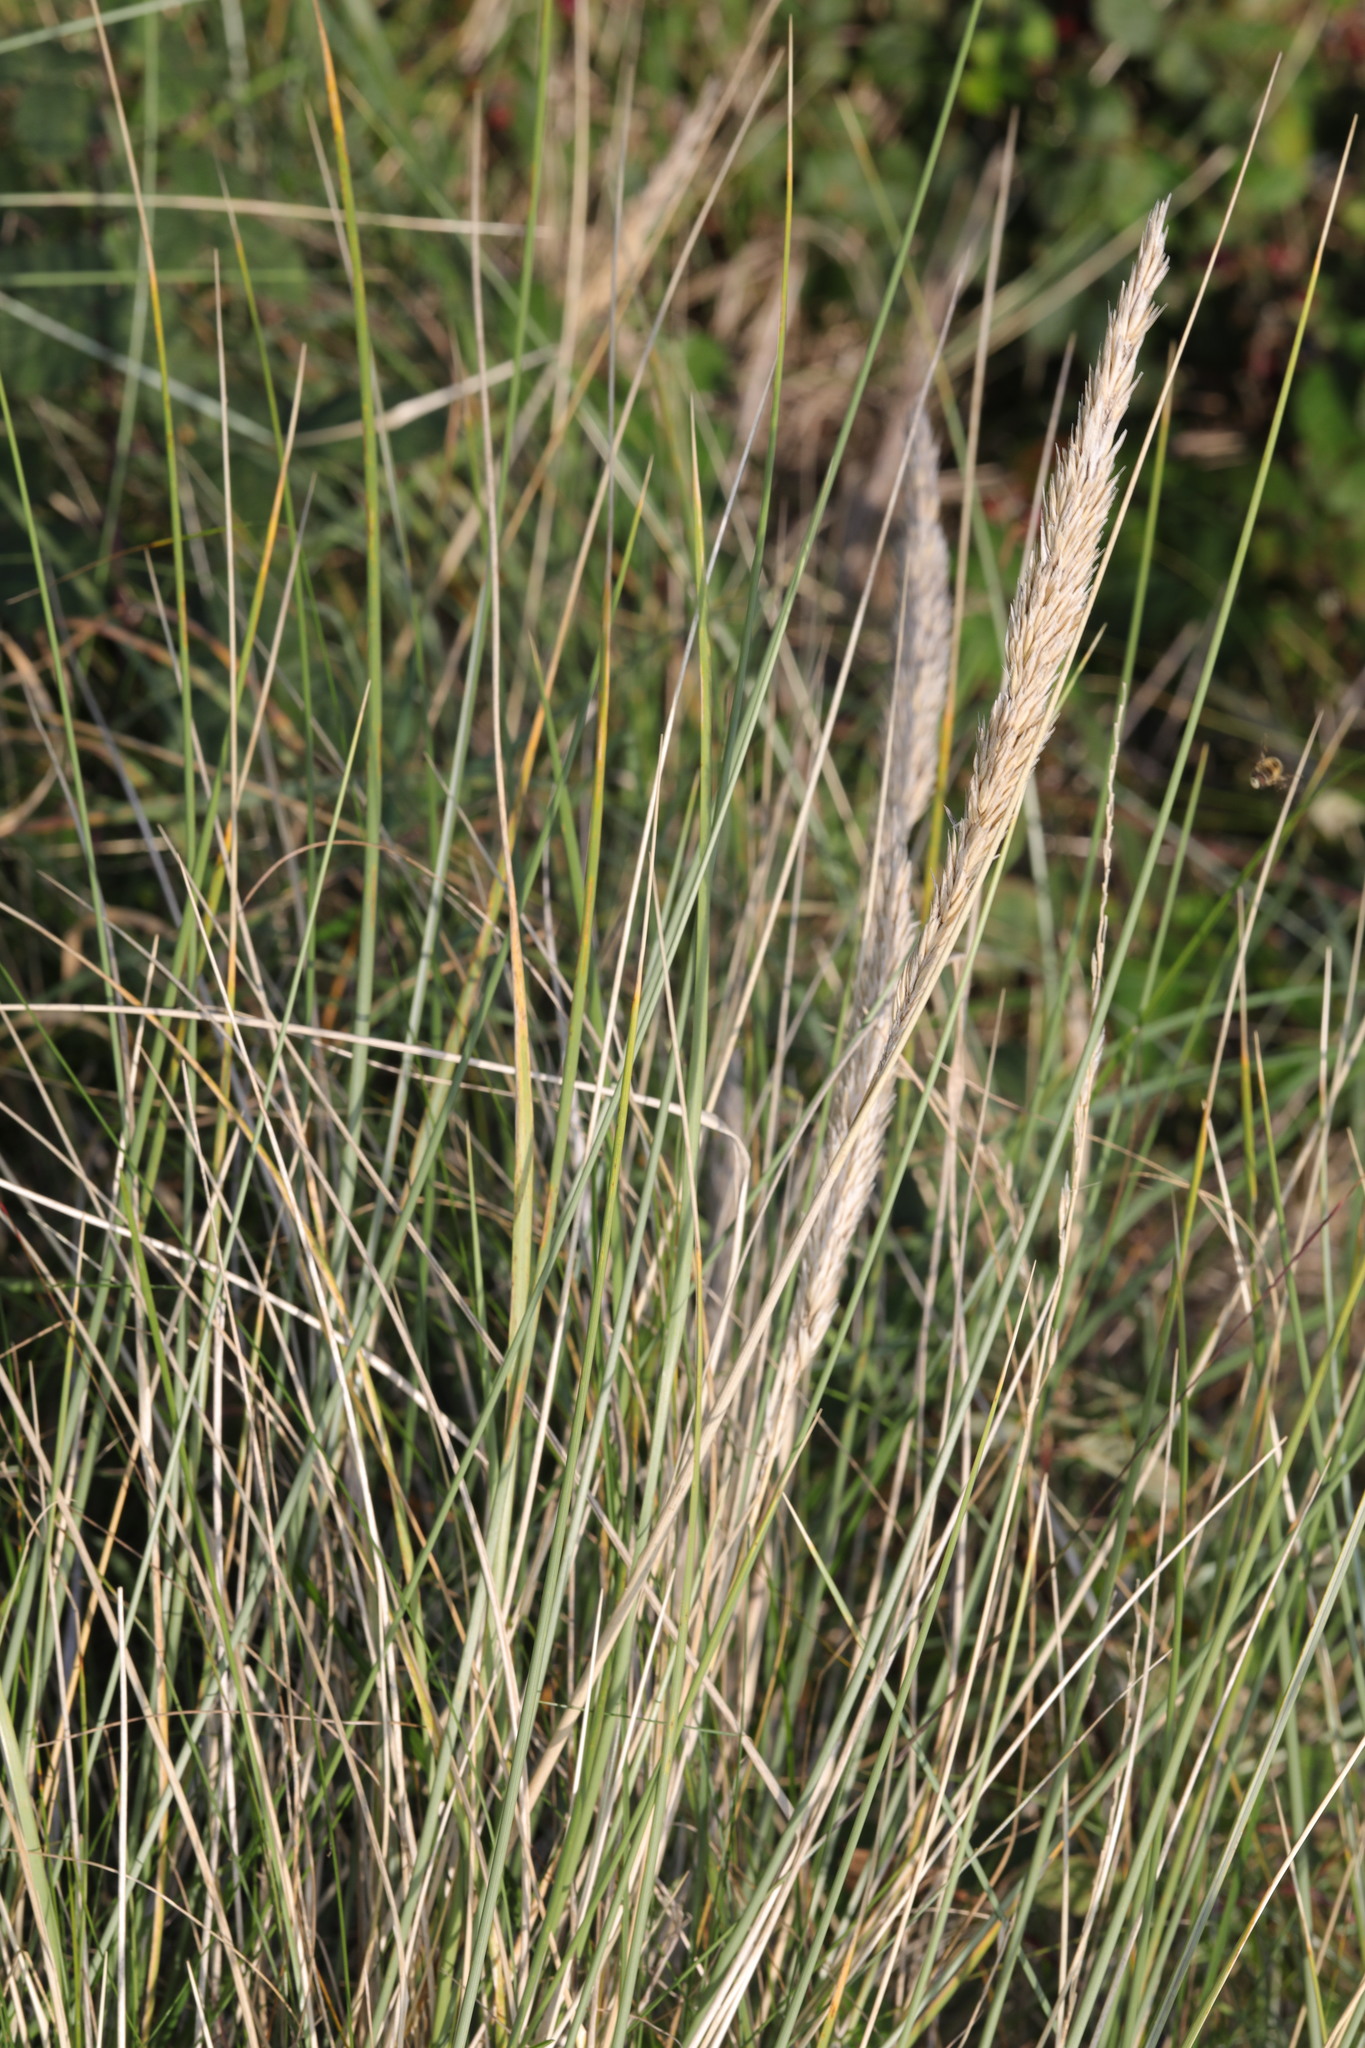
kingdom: Plantae
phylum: Tracheophyta
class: Liliopsida
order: Poales
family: Poaceae
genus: Calamagrostis
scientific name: Calamagrostis arenaria
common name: European beachgrass
